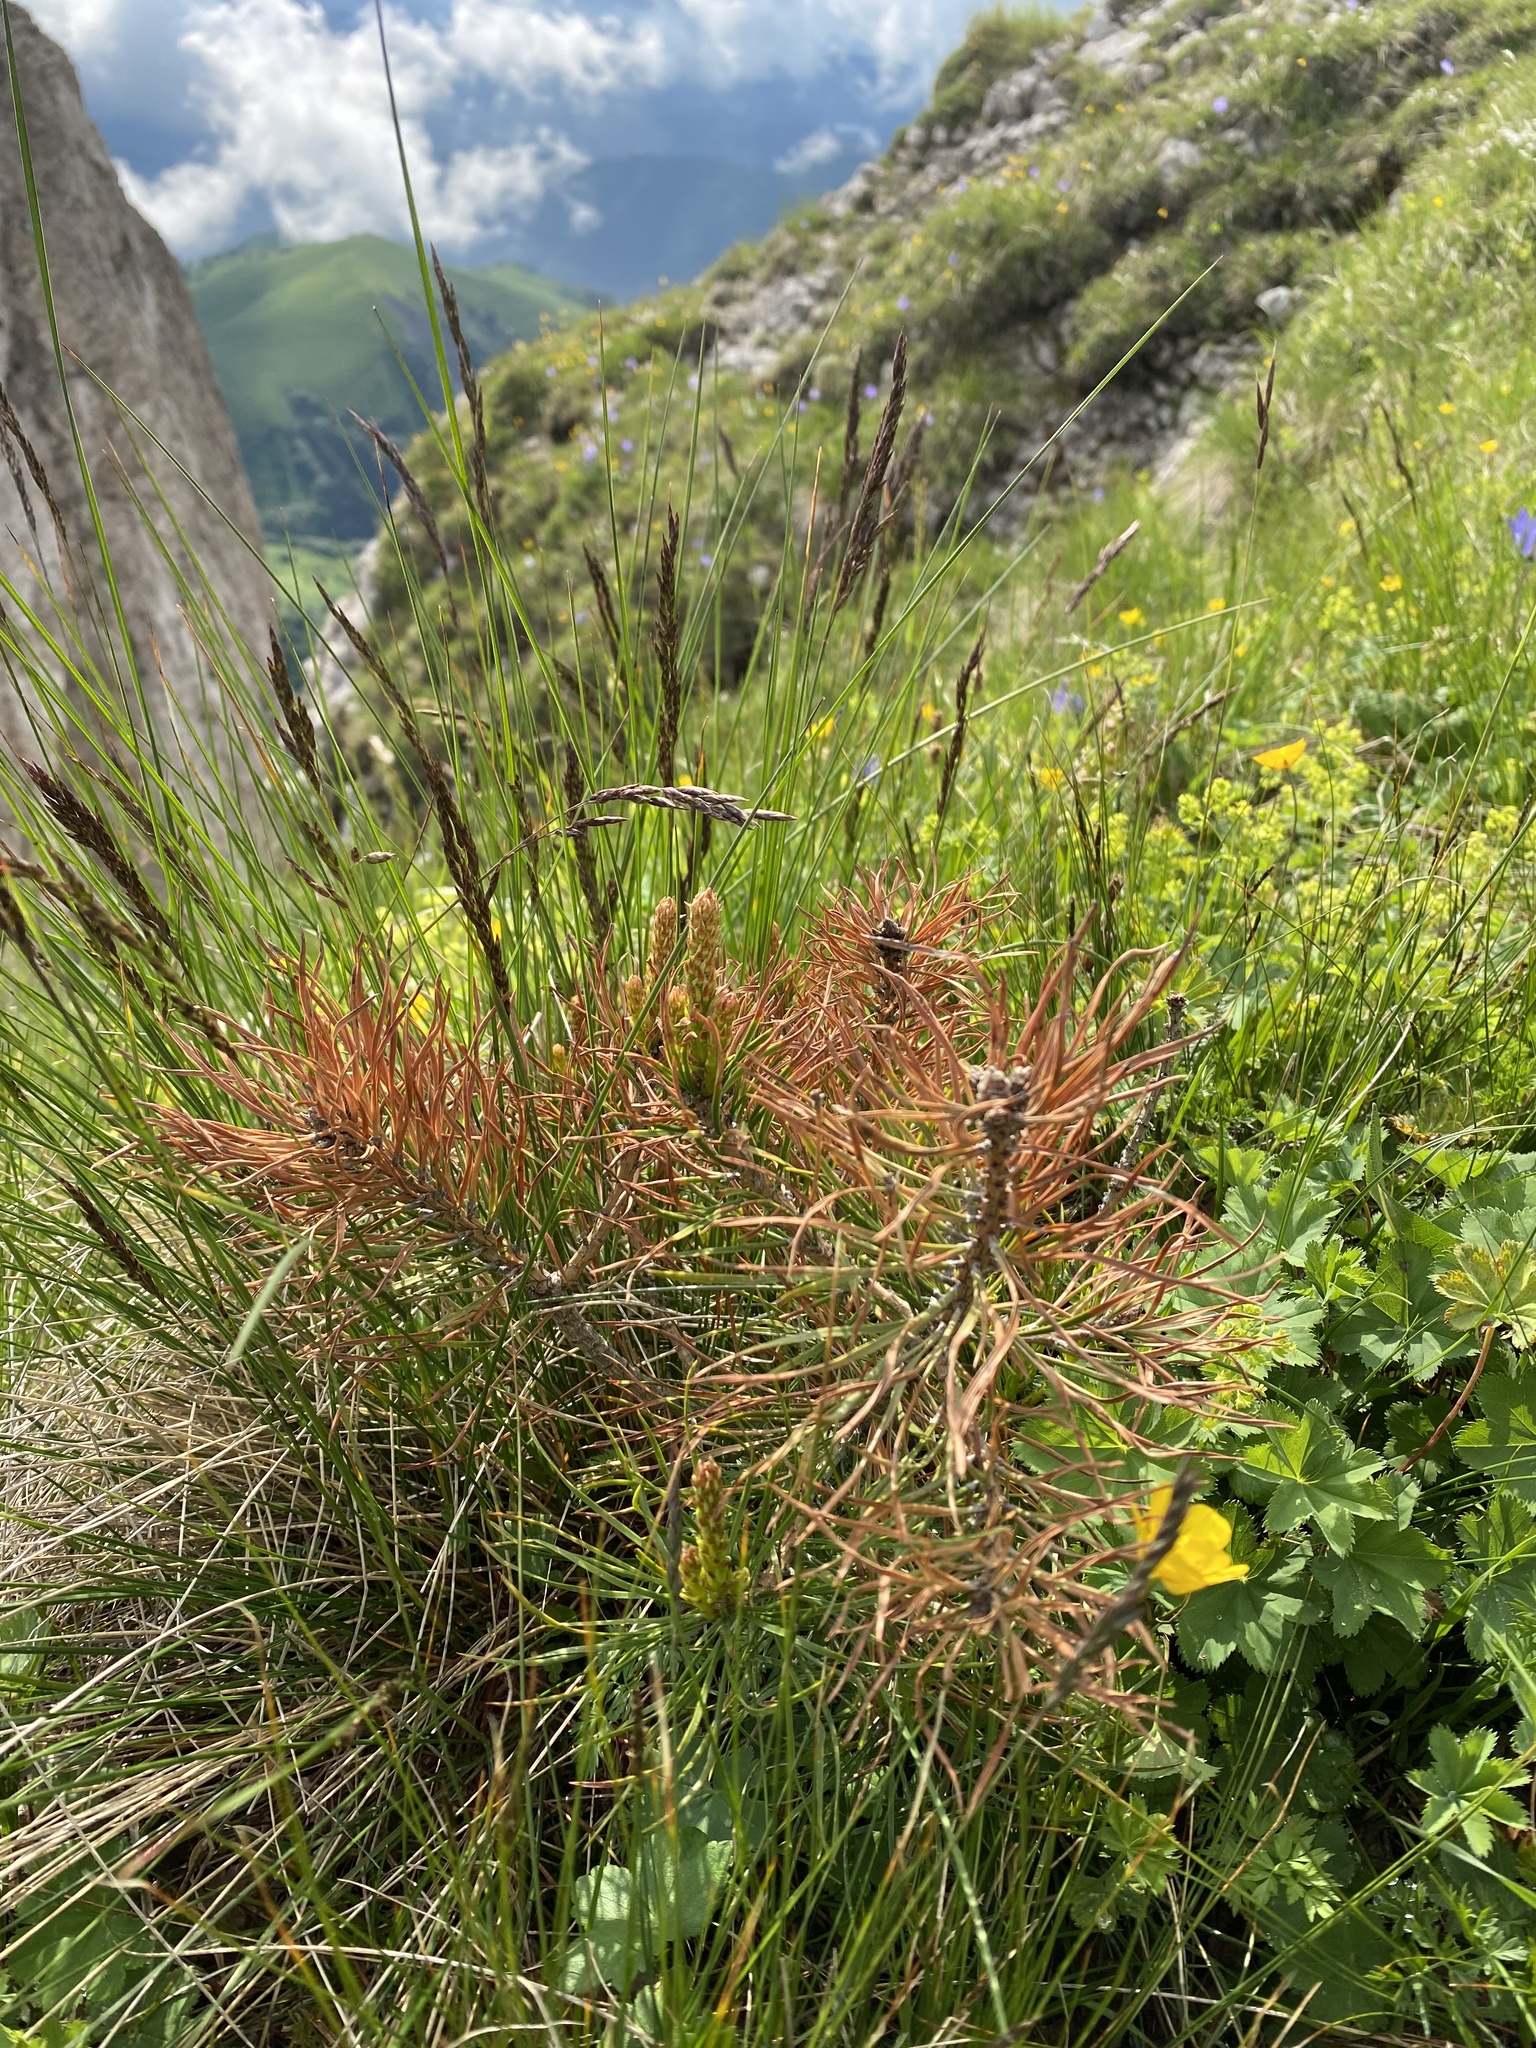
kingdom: Plantae
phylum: Tracheophyta
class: Pinopsida
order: Pinales
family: Pinaceae
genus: Pinus
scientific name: Pinus sylvestris
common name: Scots pine
